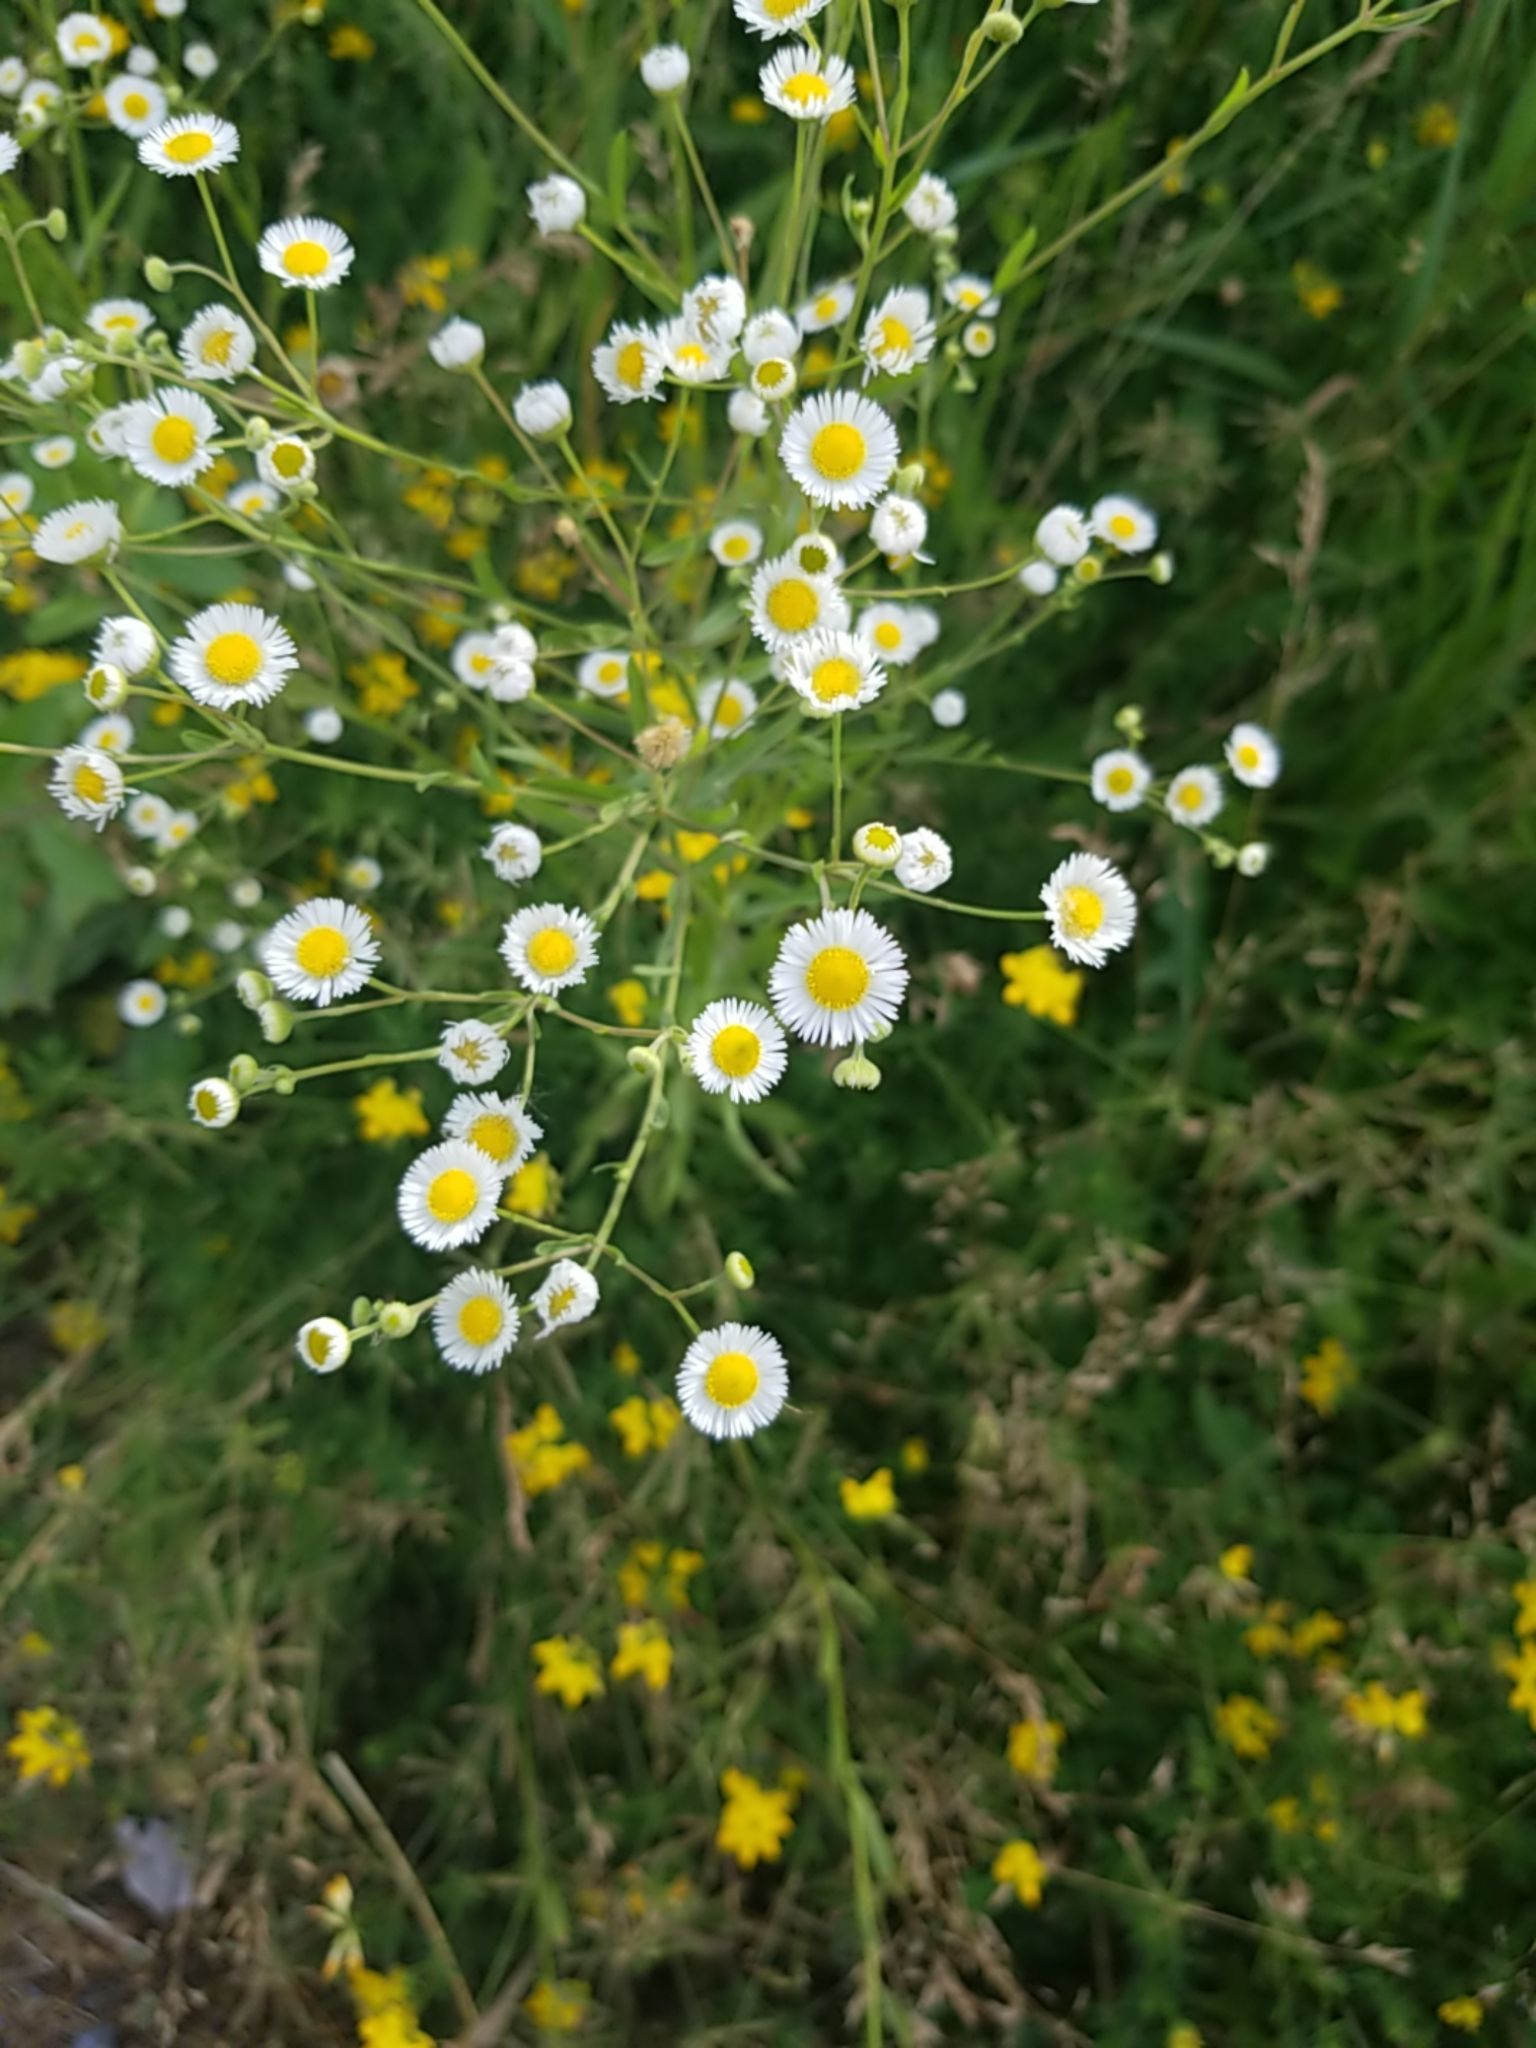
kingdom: Plantae
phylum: Tracheophyta
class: Magnoliopsida
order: Asterales
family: Asteraceae
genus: Erigeron
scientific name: Erigeron strigosus
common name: Common eastern fleabane
